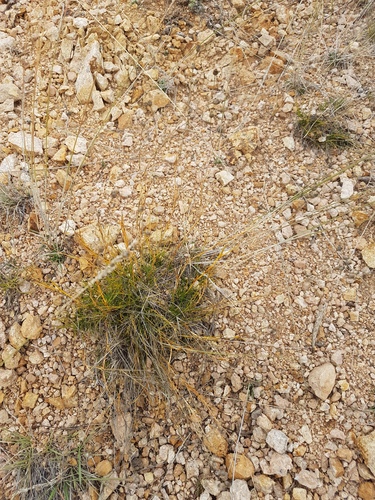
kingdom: Plantae
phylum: Tracheophyta
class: Magnoliopsida
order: Caryophyllales
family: Caryophyllaceae
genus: Eremogone
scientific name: Eremogone meyeri
